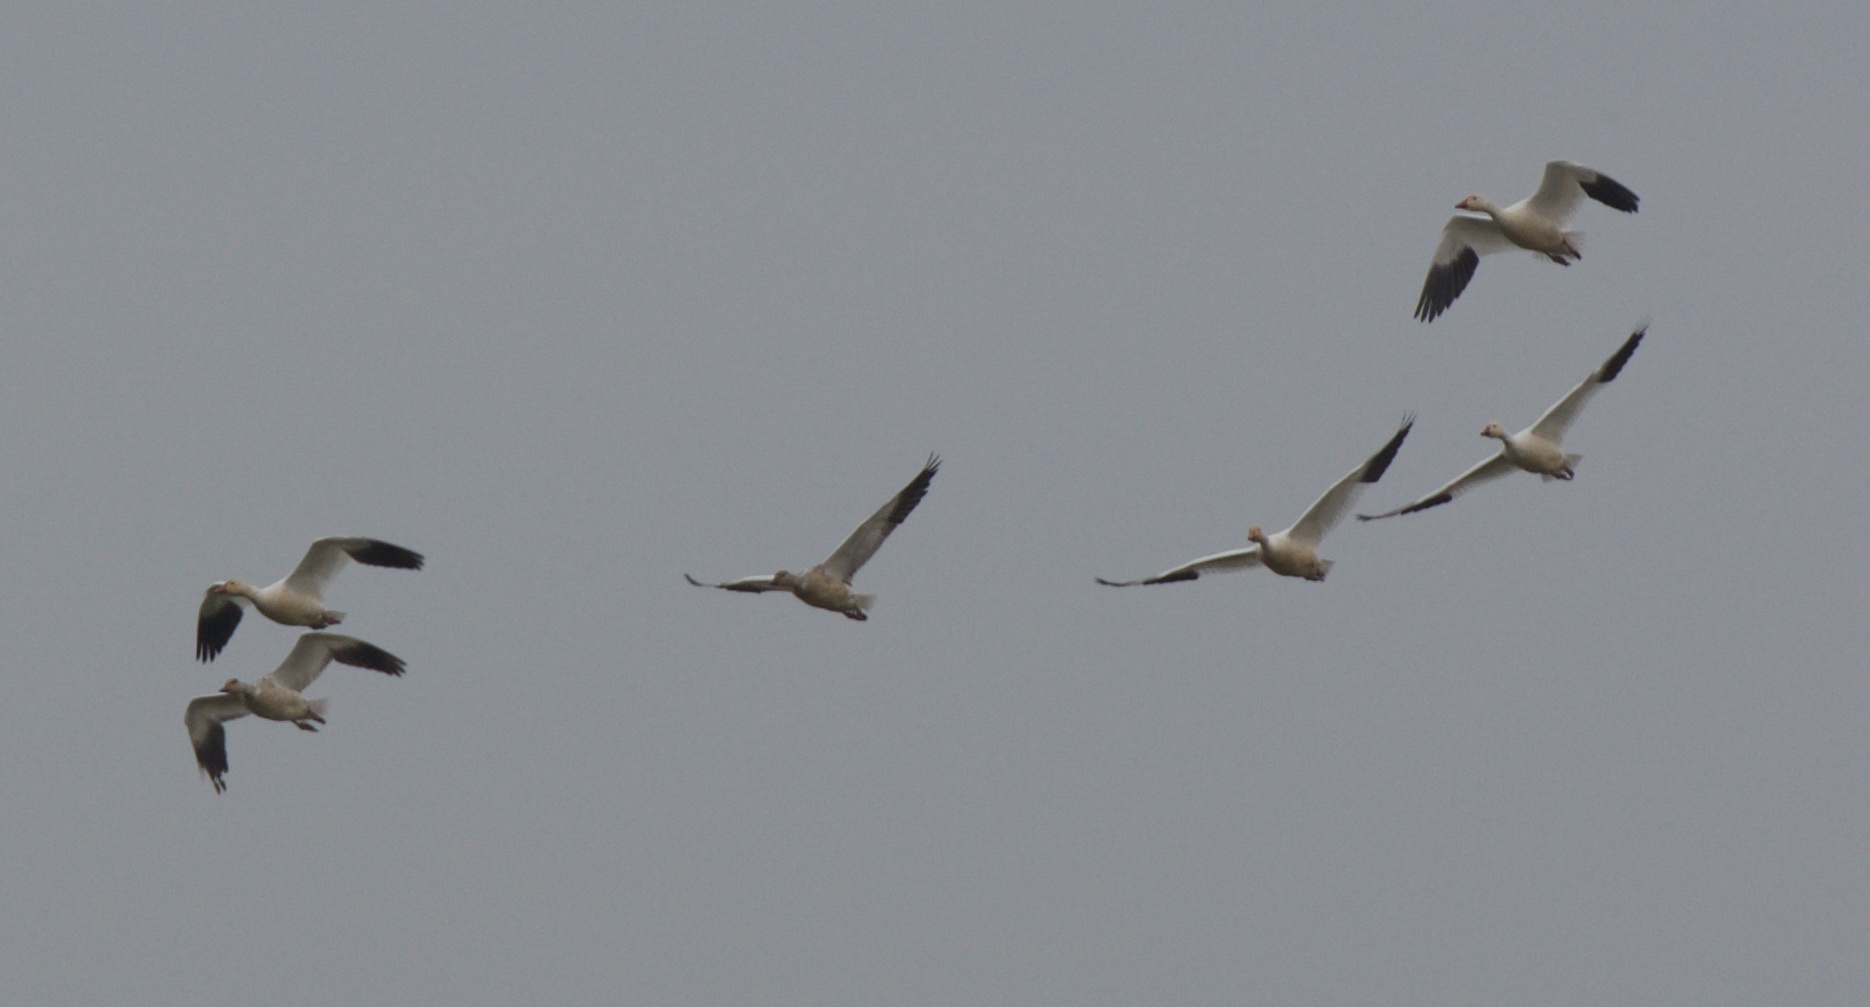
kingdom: Animalia
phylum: Chordata
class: Aves
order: Anseriformes
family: Anatidae
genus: Anser
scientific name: Anser caerulescens
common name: Snow goose
